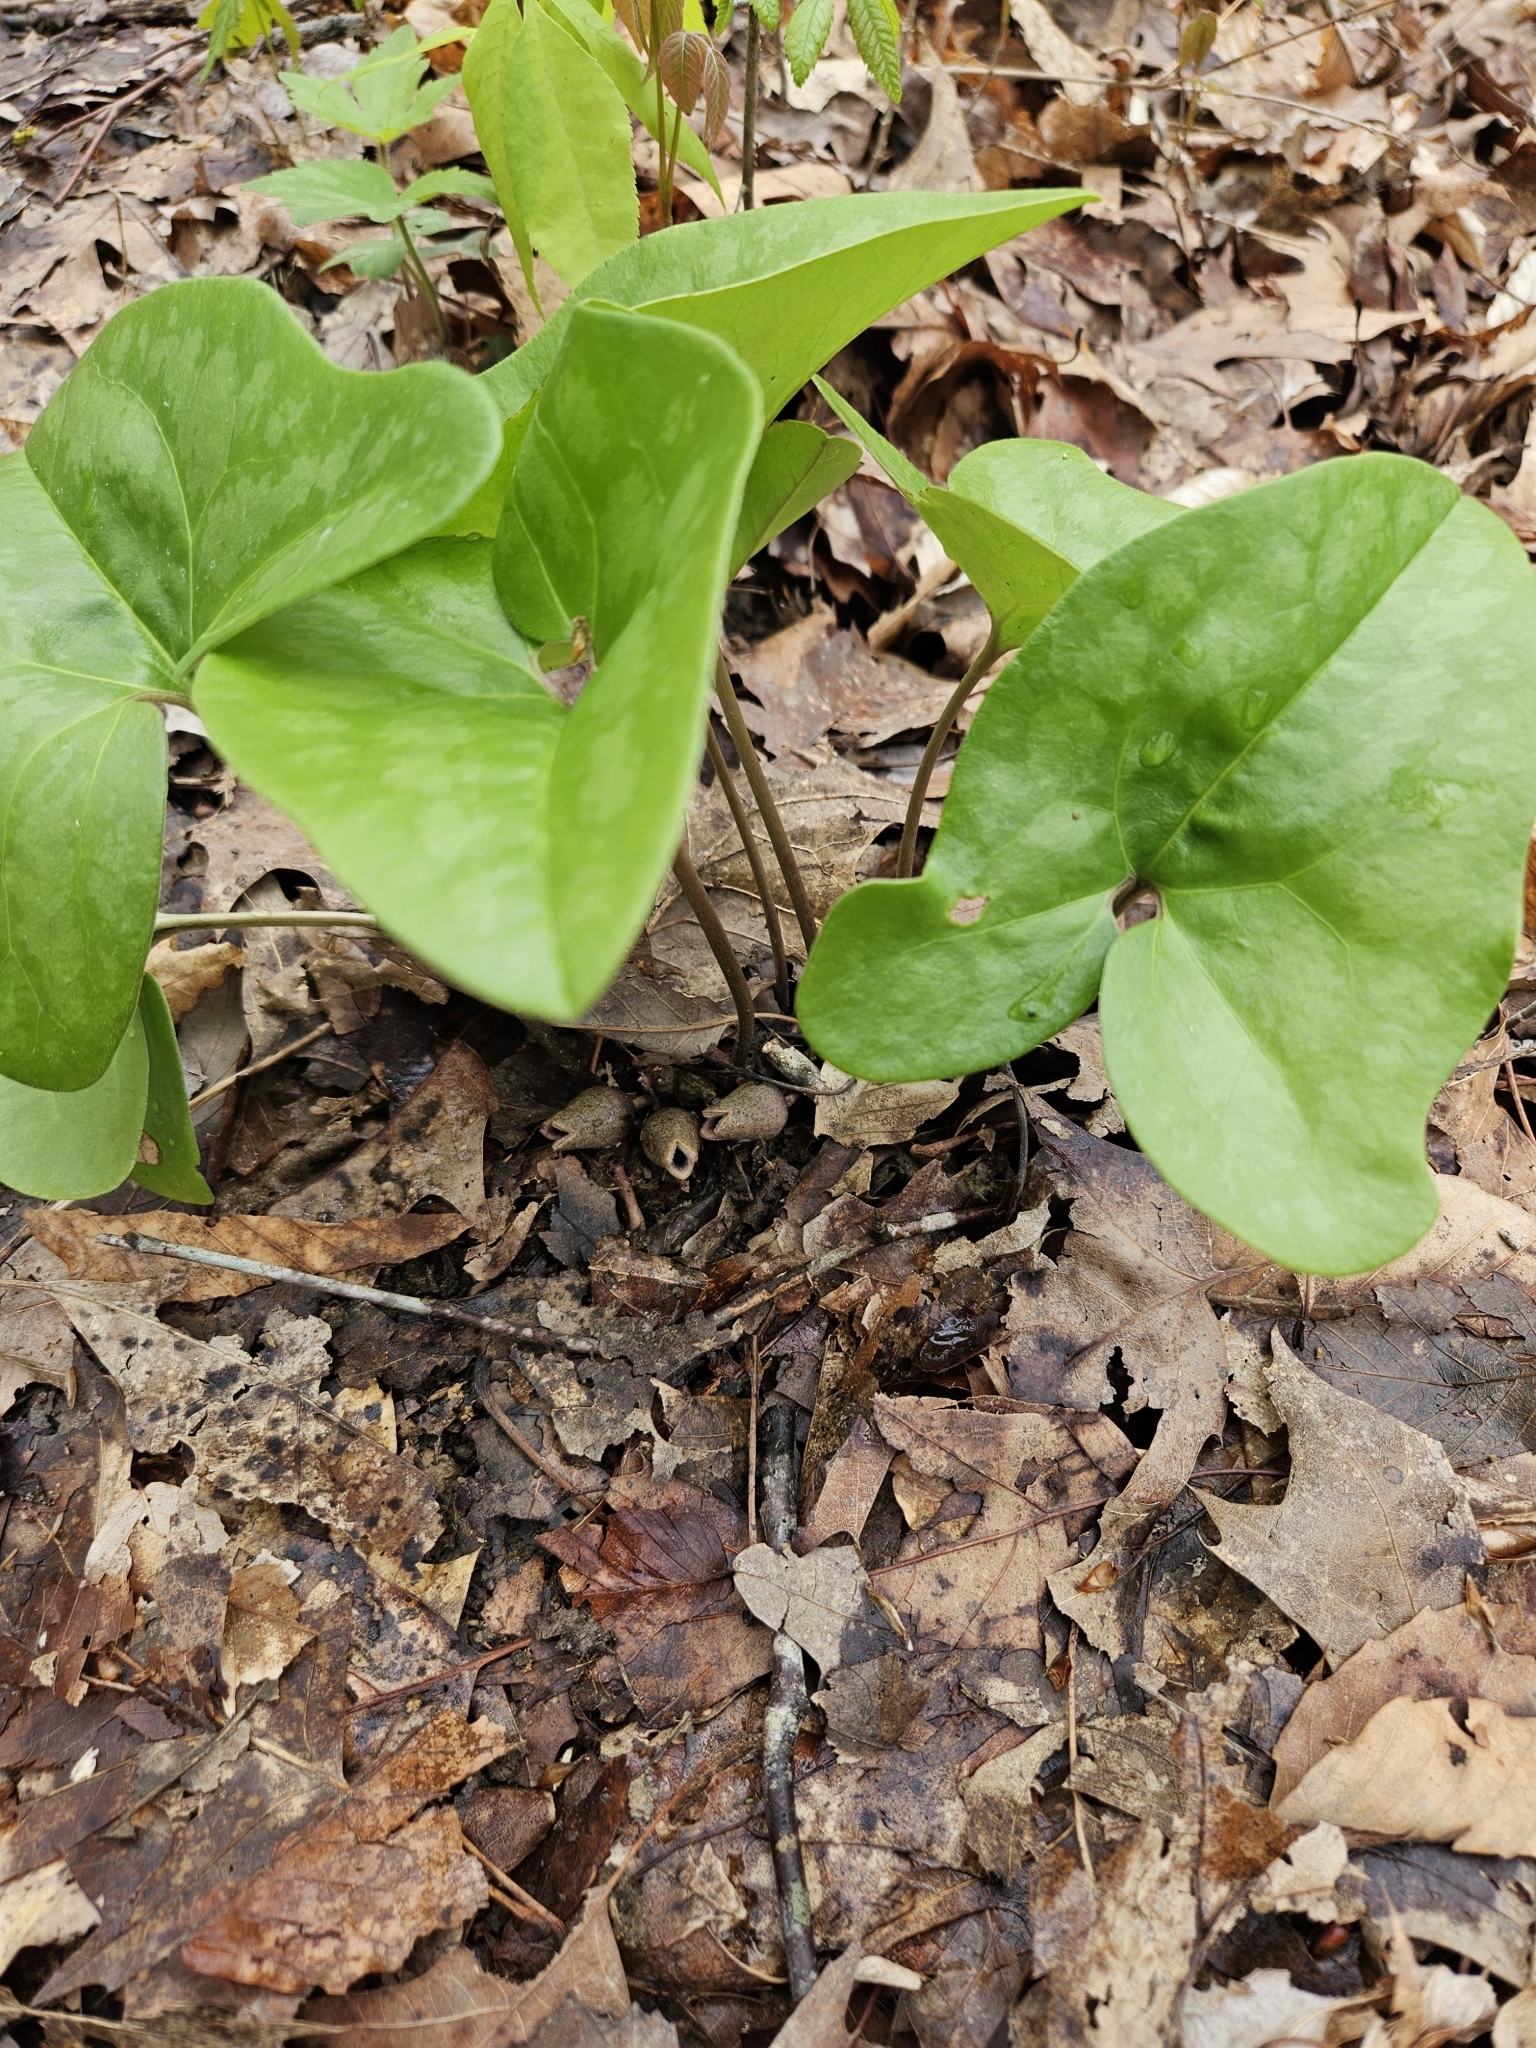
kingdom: Plantae
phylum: Tracheophyta
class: Magnoliopsida
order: Piperales
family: Aristolochiaceae
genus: Hexastylis
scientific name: Hexastylis arifolia
